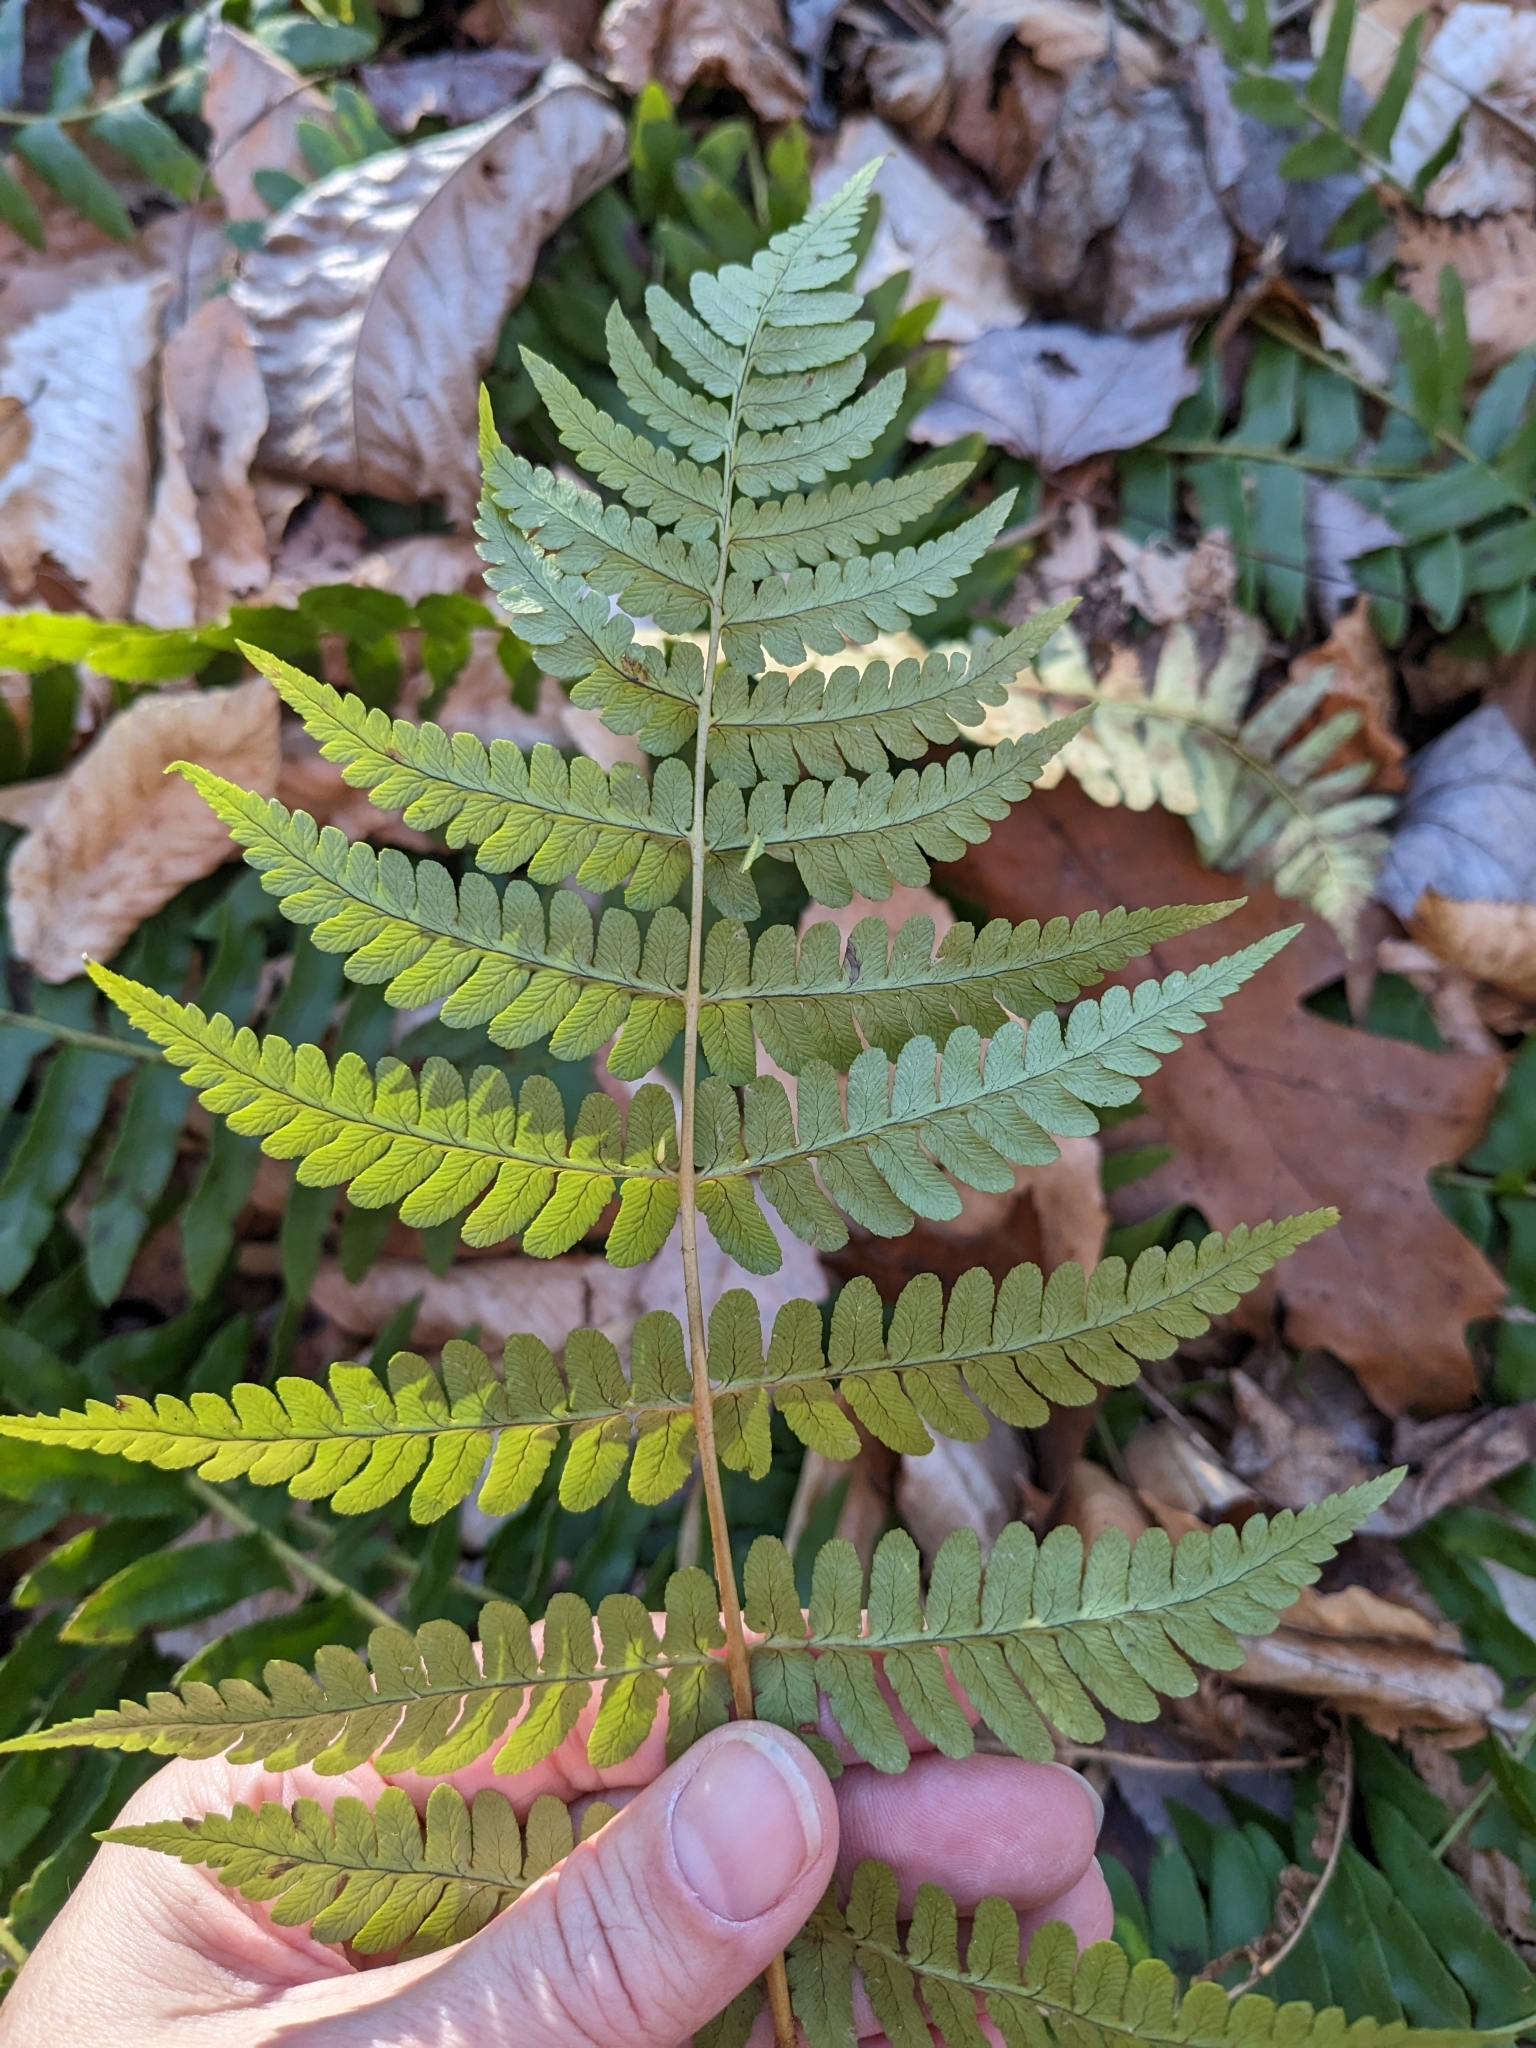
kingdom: Plantae
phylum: Tracheophyta
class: Polypodiopsida
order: Polypodiales
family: Dryopteridaceae
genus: Dryopteris
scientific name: Dryopteris marginalis
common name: Marginal wood fern
